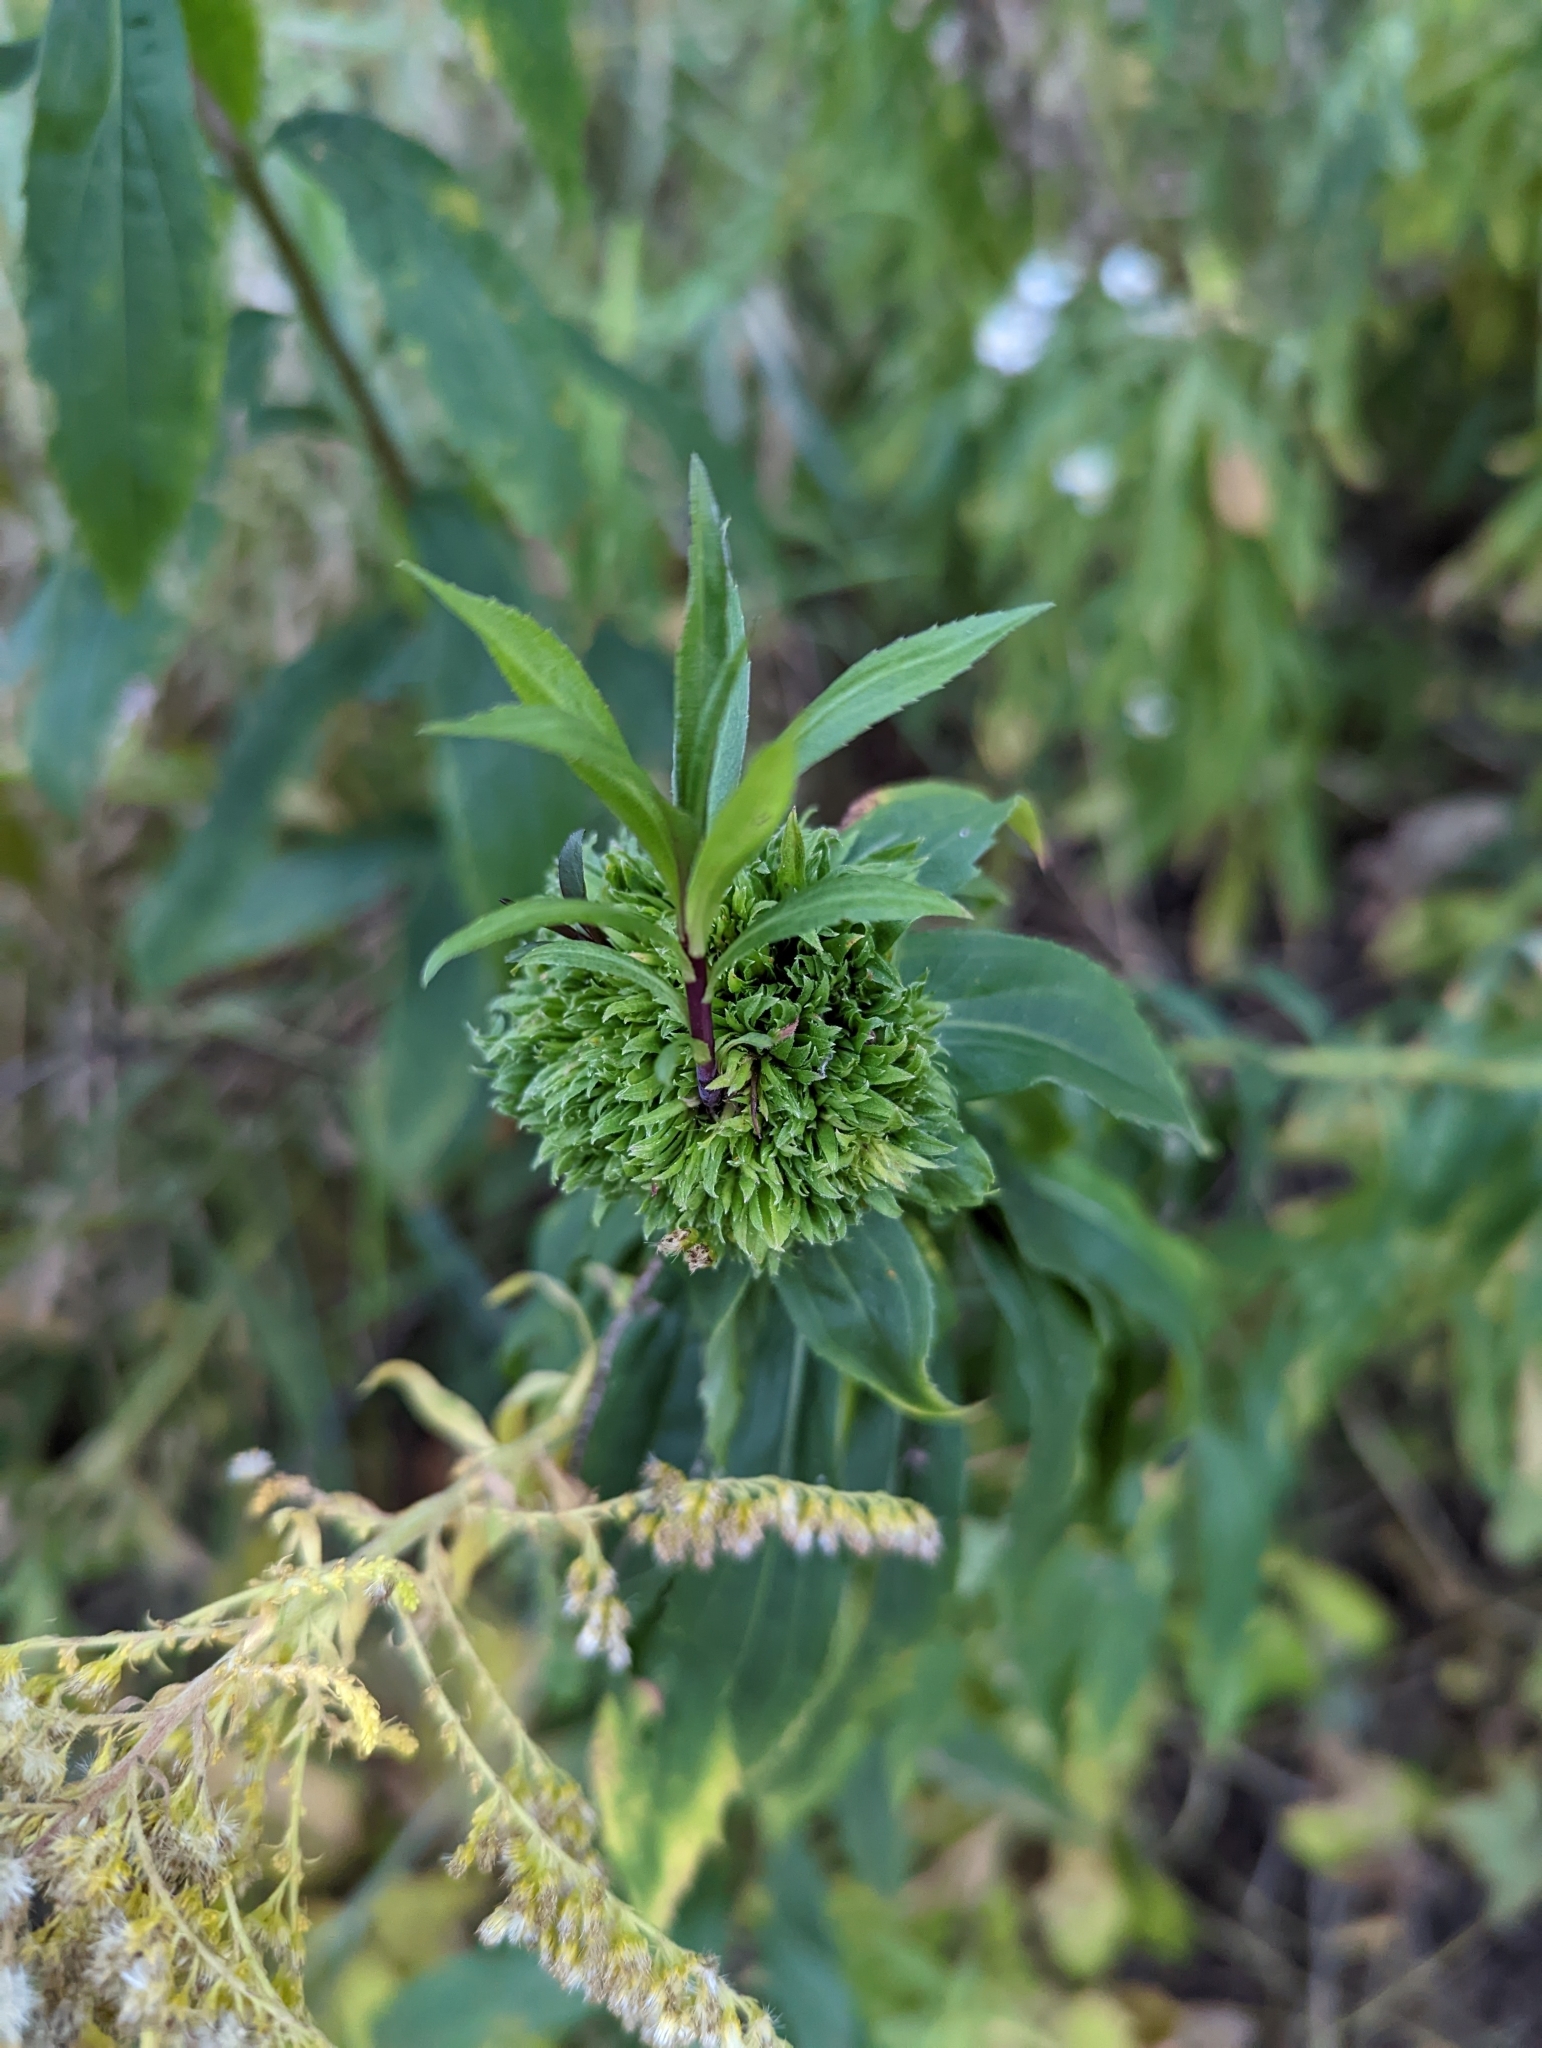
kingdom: Animalia
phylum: Arthropoda
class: Insecta
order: Diptera
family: Cecidomyiidae
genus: Rhopalomyia
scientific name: Rhopalomyia capitata
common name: Giant goldenrod bunch gall midge
